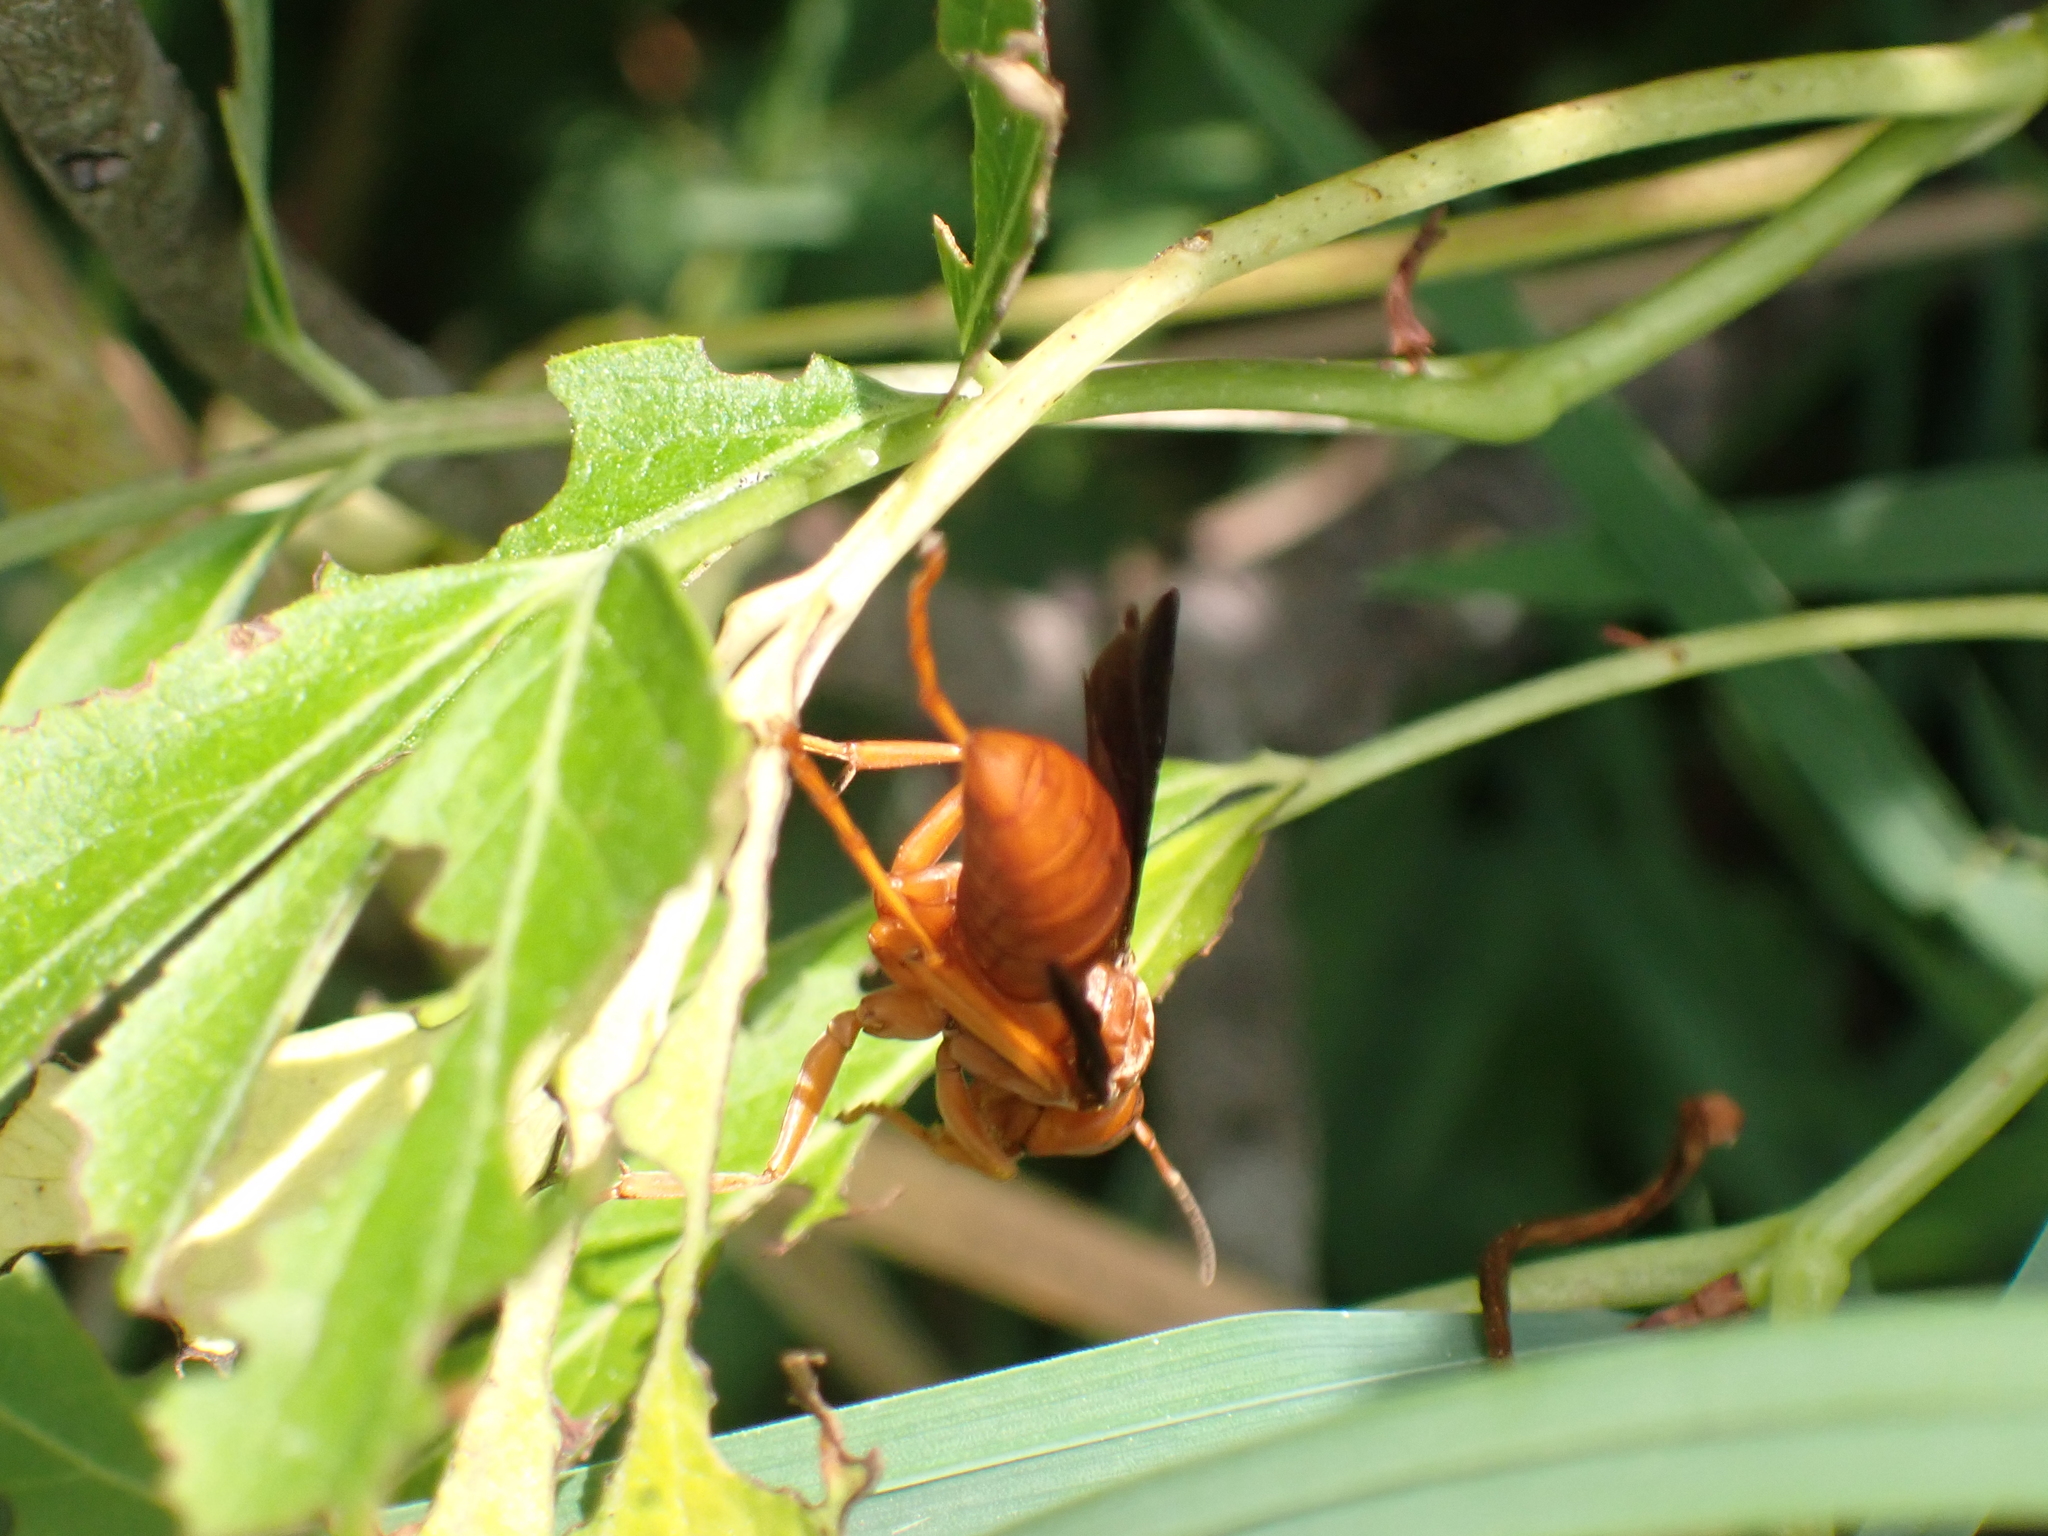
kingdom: Animalia
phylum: Arthropoda
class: Insecta
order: Hymenoptera
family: Eumenidae
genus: Polistes
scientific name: Polistes carolina
